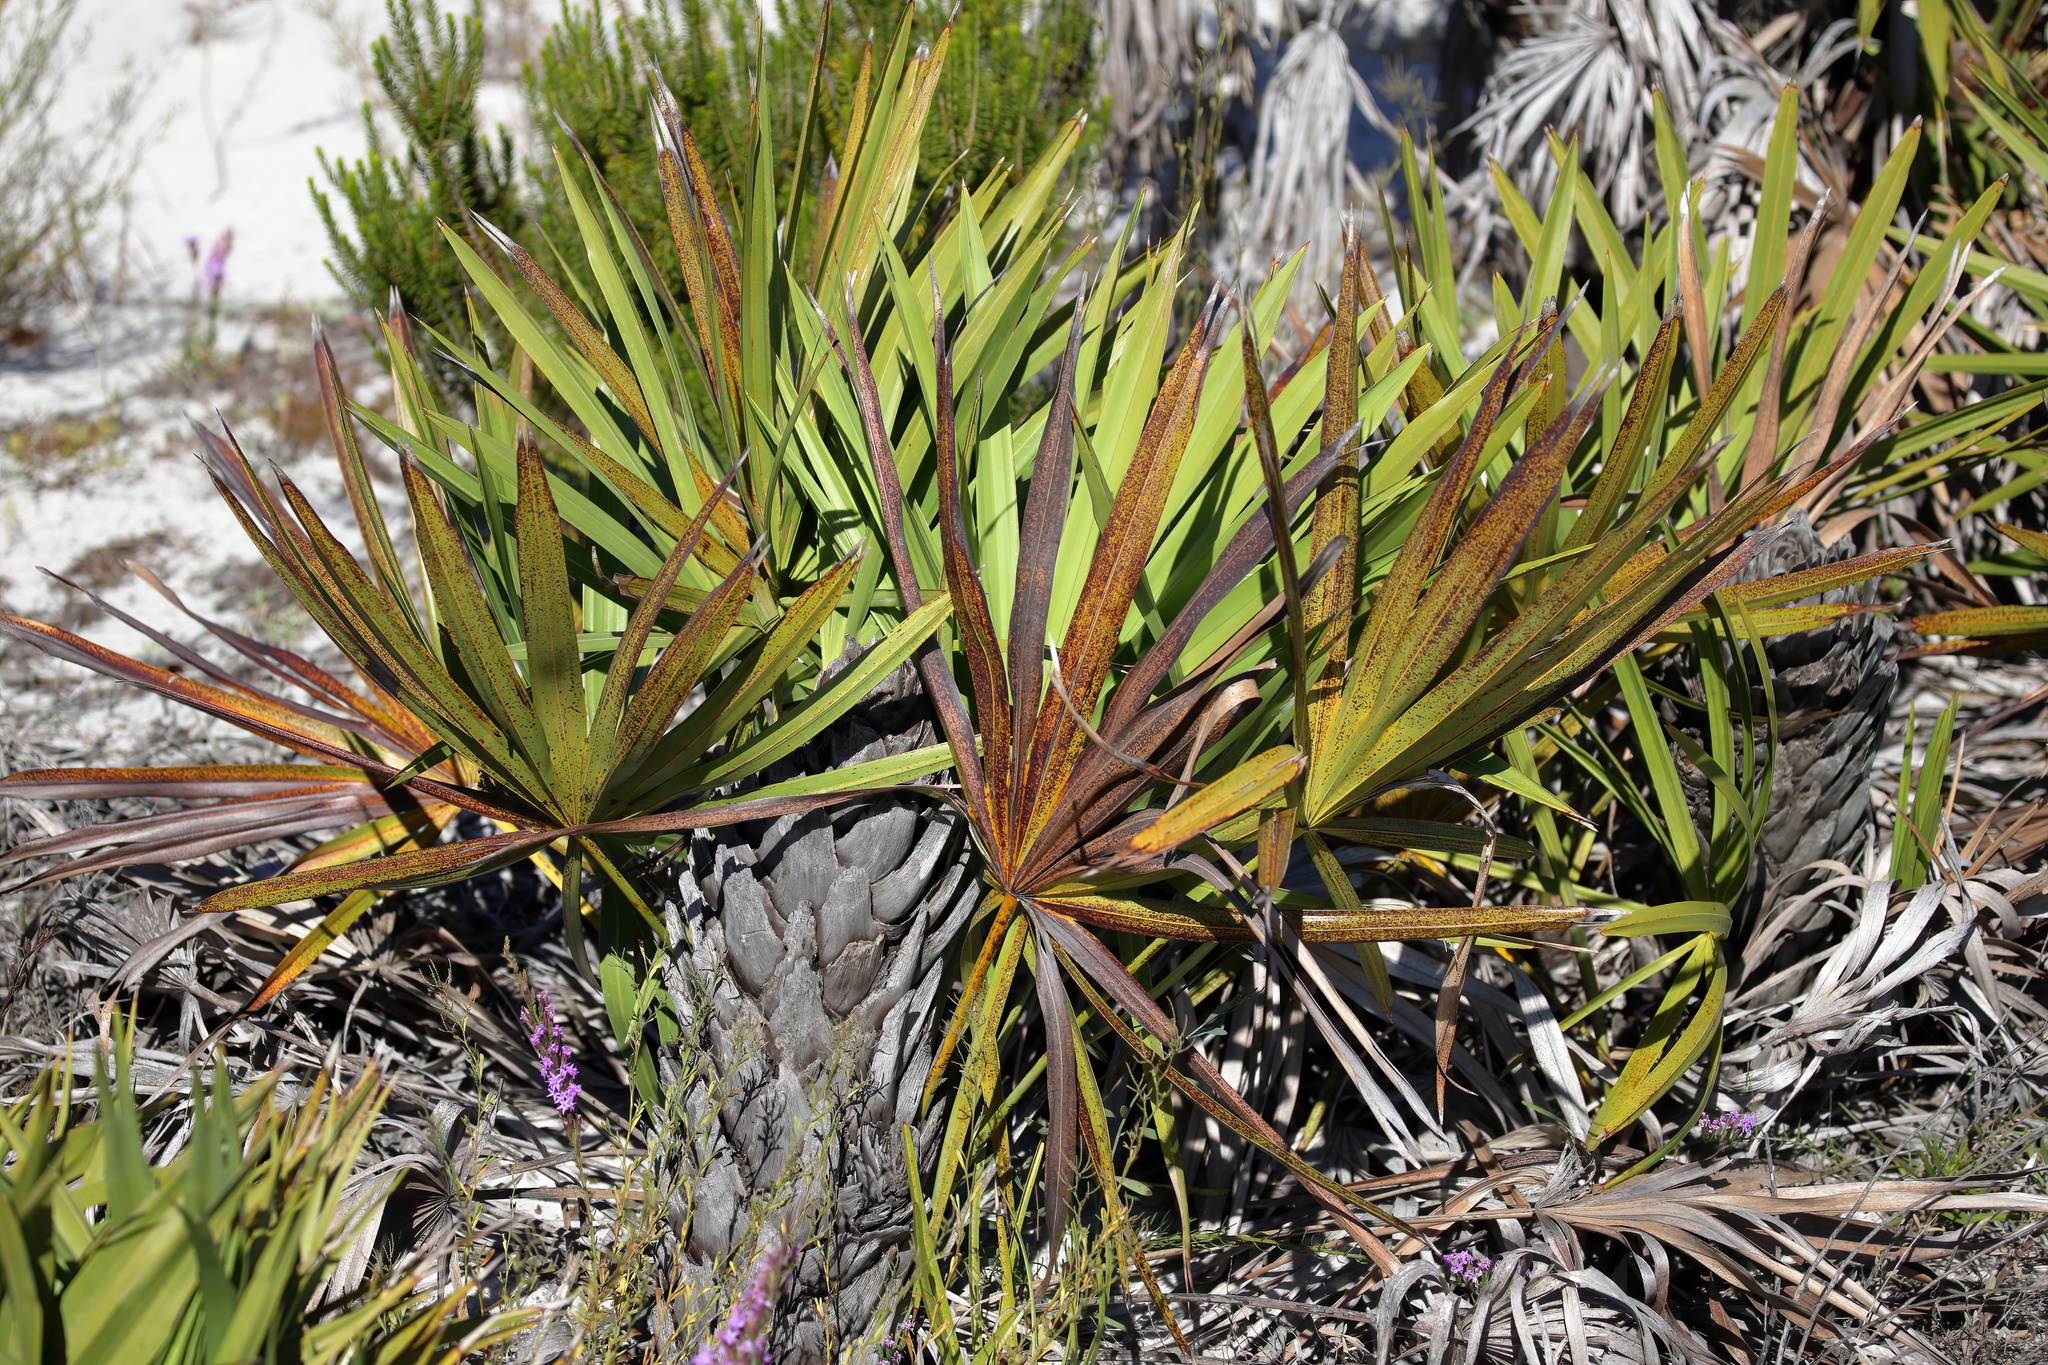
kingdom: Plantae
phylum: Tracheophyta
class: Liliopsida
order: Arecales
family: Arecaceae
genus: Serenoa
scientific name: Serenoa repens
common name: Saw-palmetto
